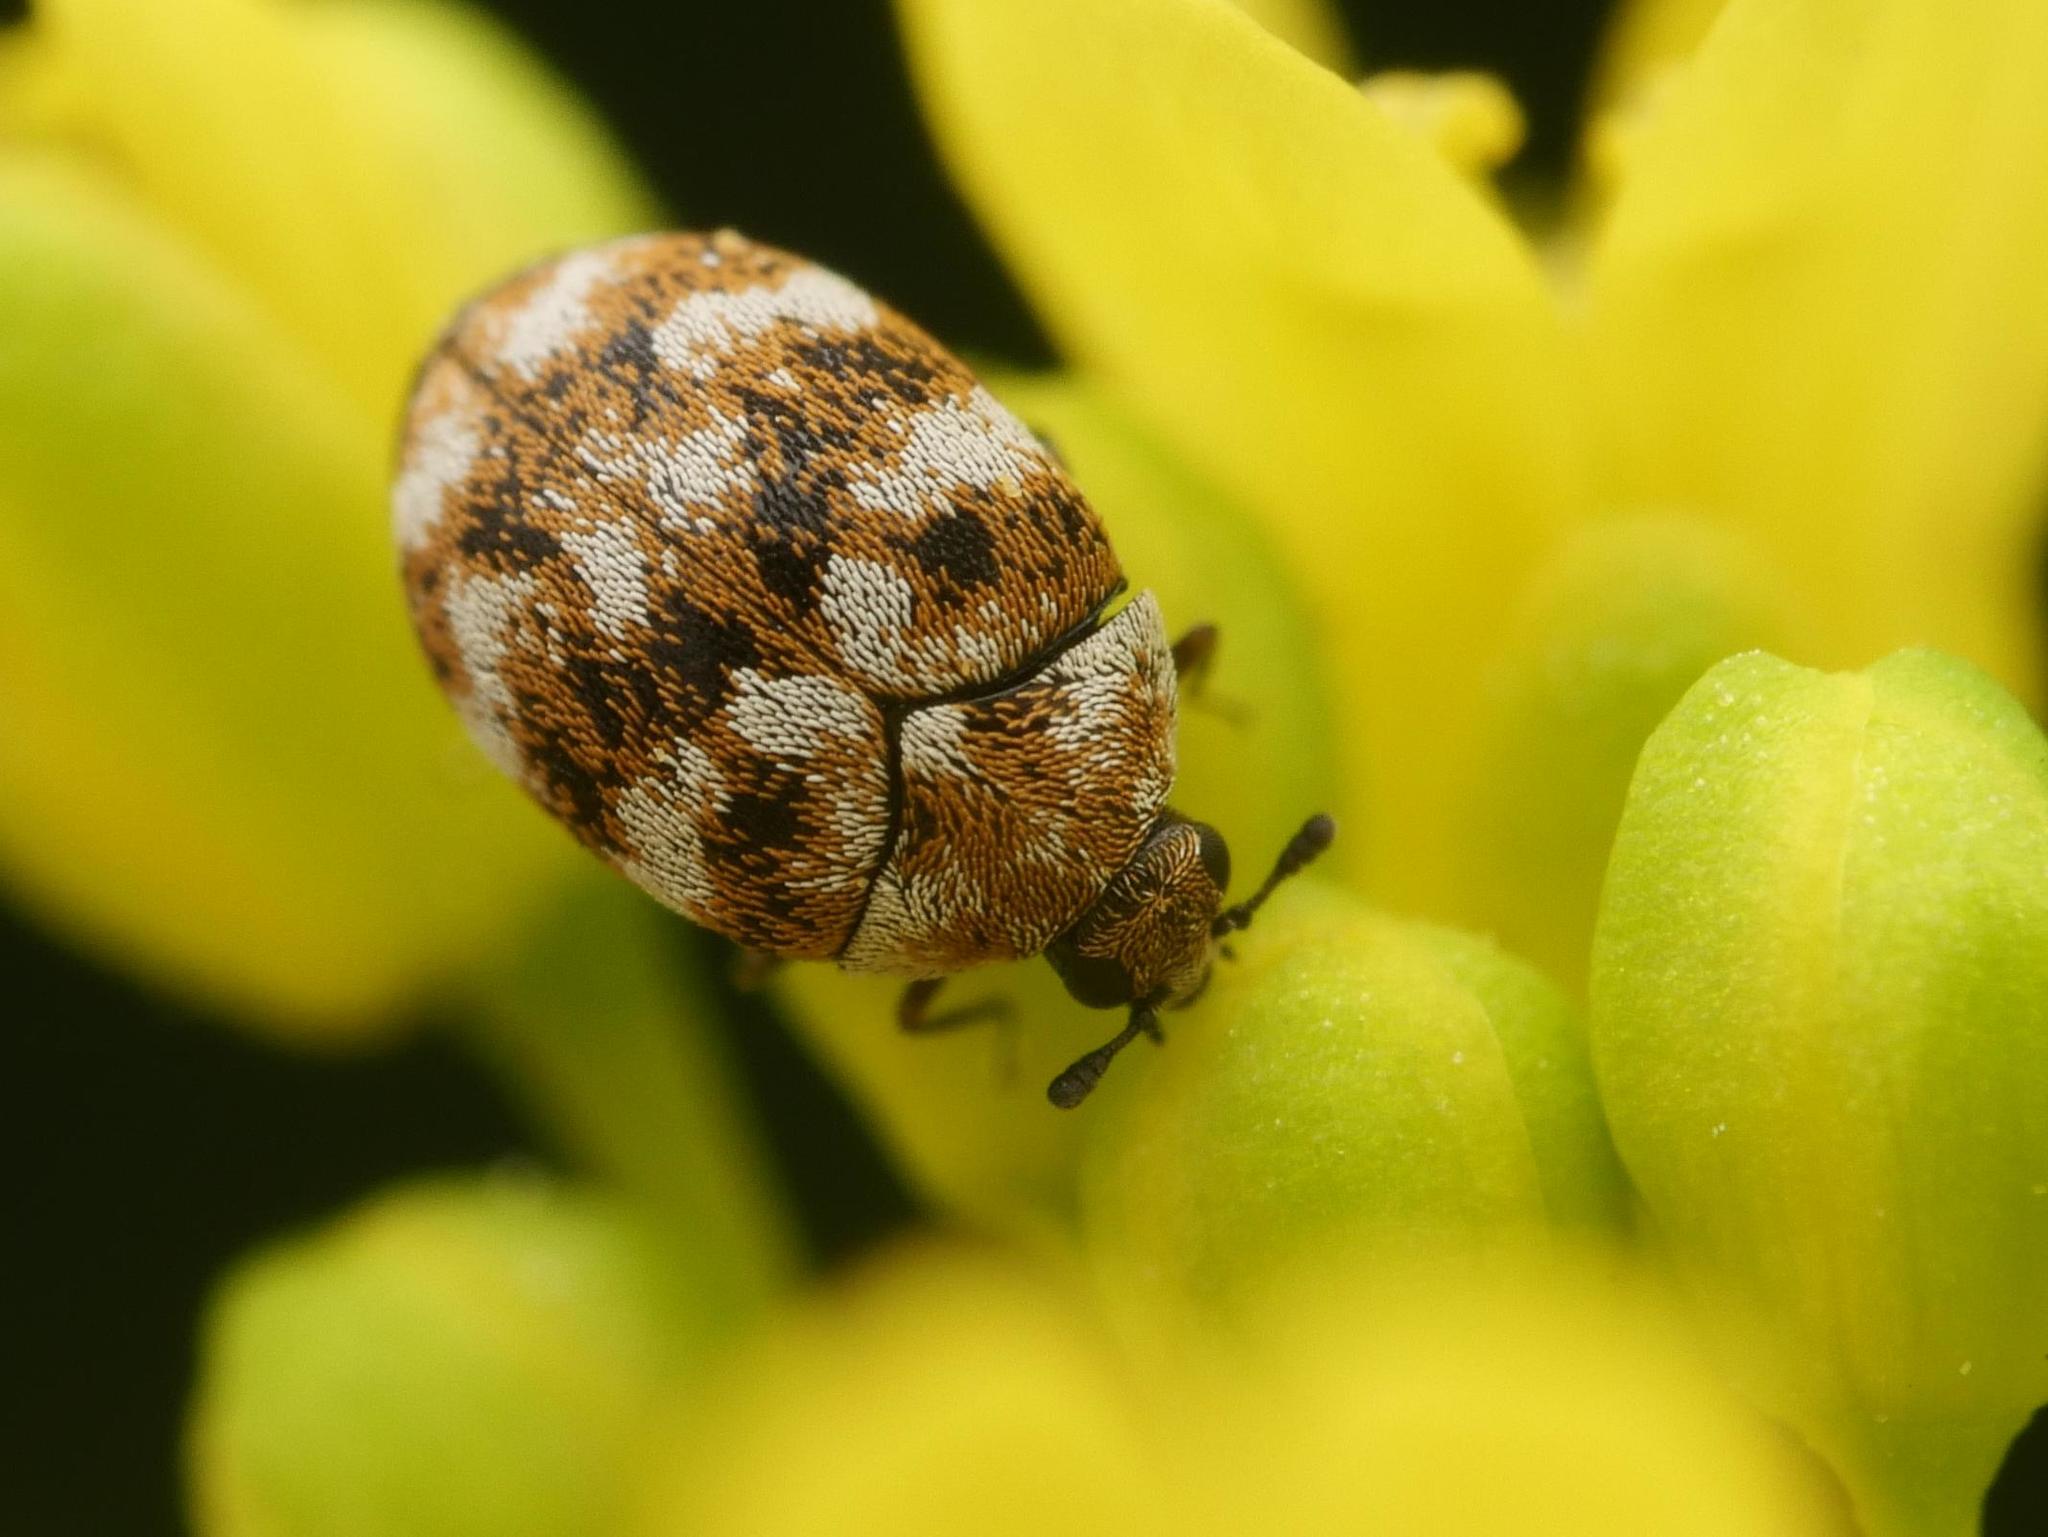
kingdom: Animalia
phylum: Arthropoda
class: Insecta
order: Coleoptera
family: Dermestidae
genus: Anthrenus
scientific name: Anthrenus verbasci
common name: Varied carpet beetle
